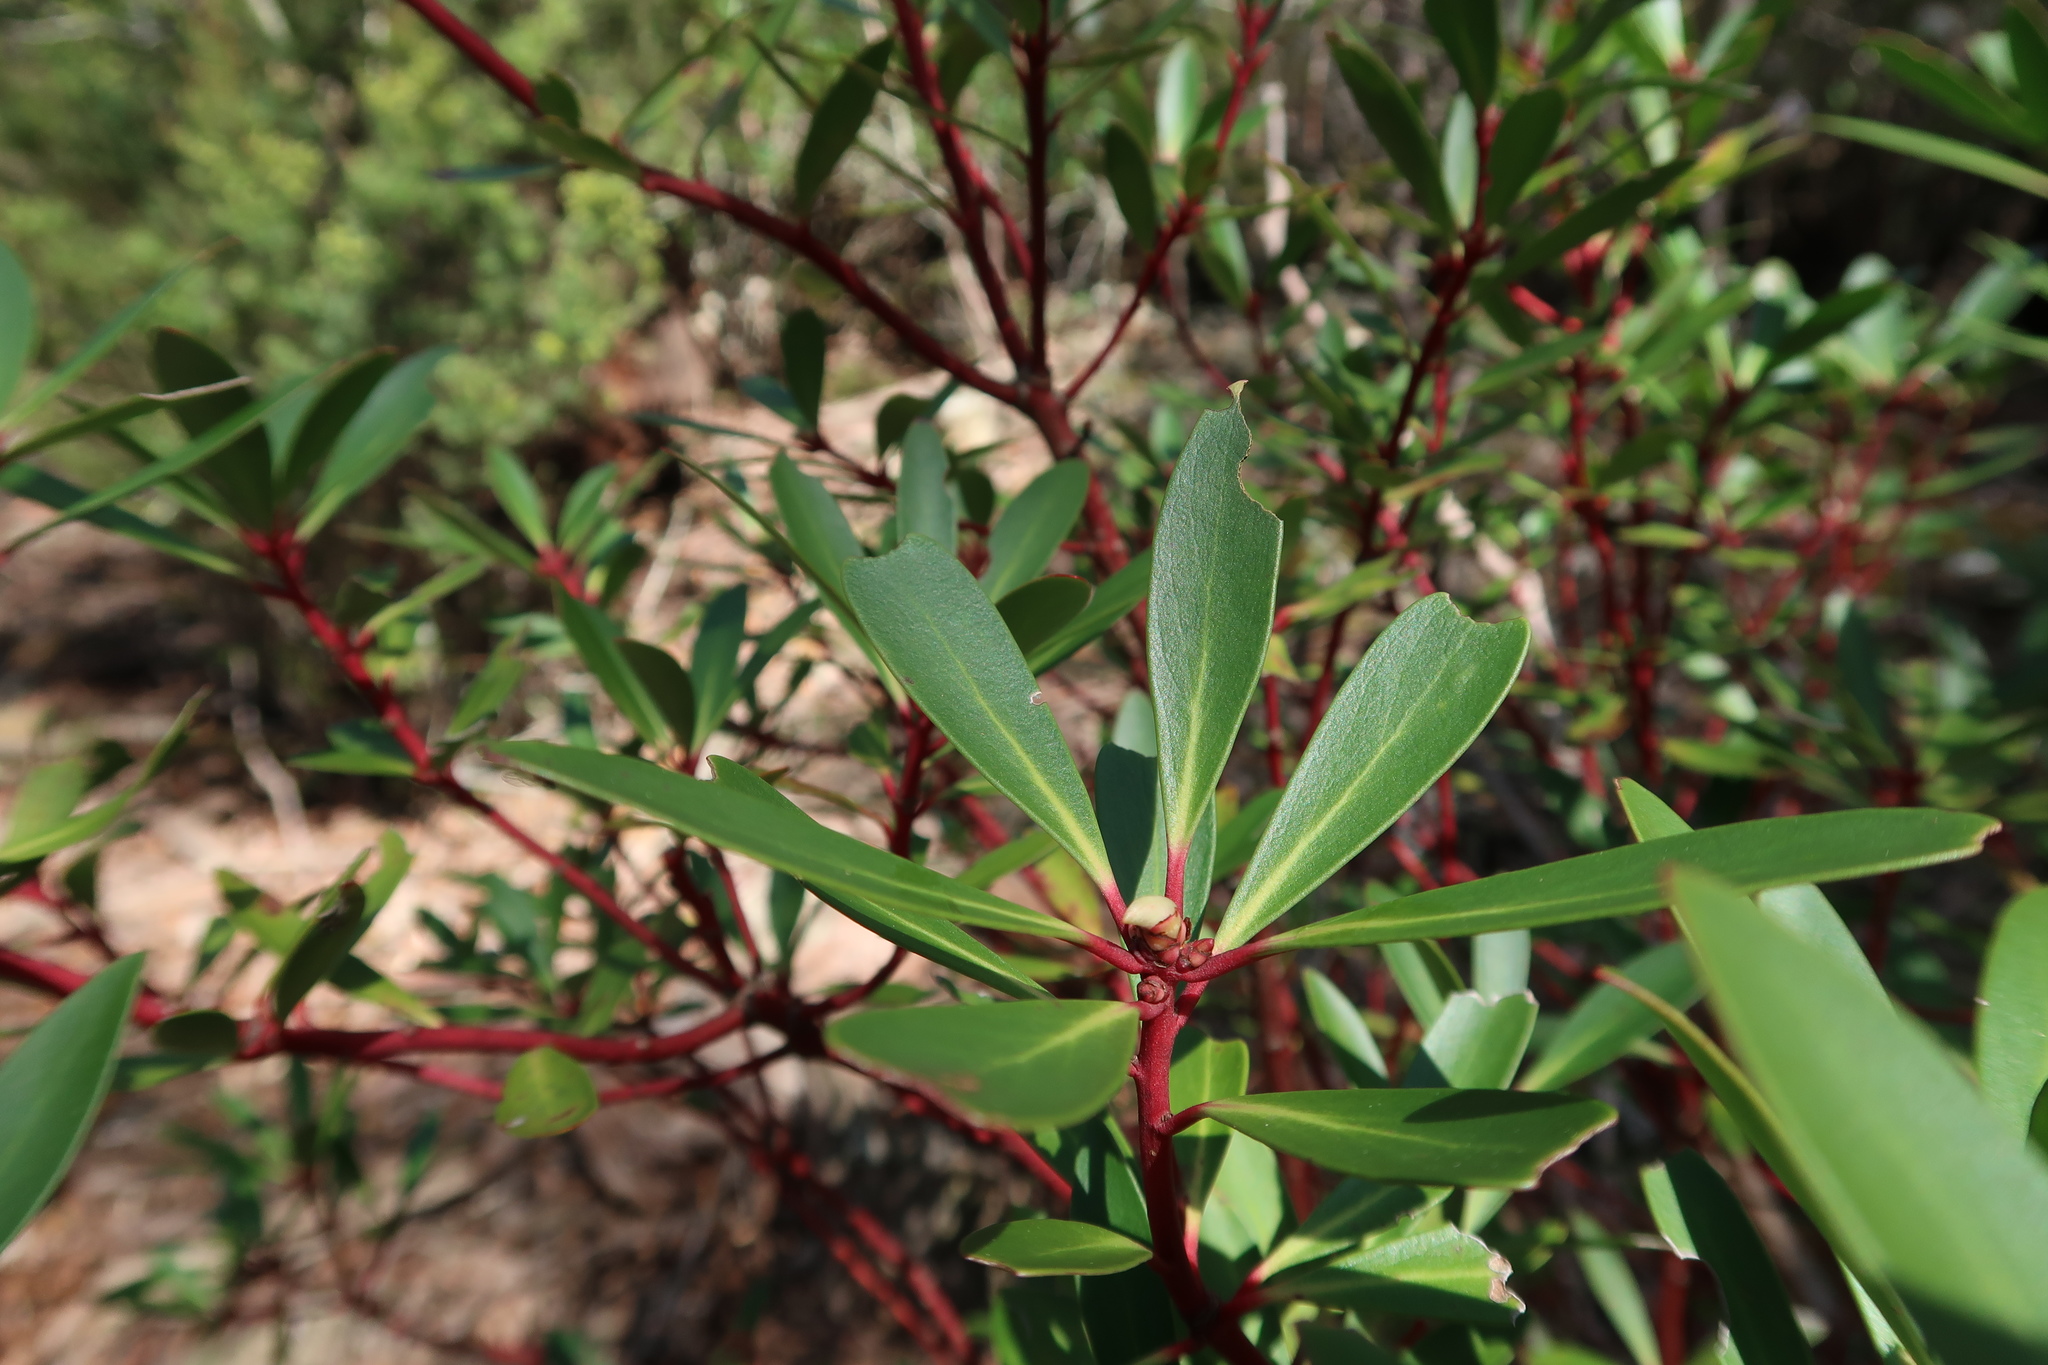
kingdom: Plantae
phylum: Tracheophyta
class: Magnoliopsida
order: Canellales
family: Winteraceae
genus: Drimys
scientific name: Drimys aromatica
